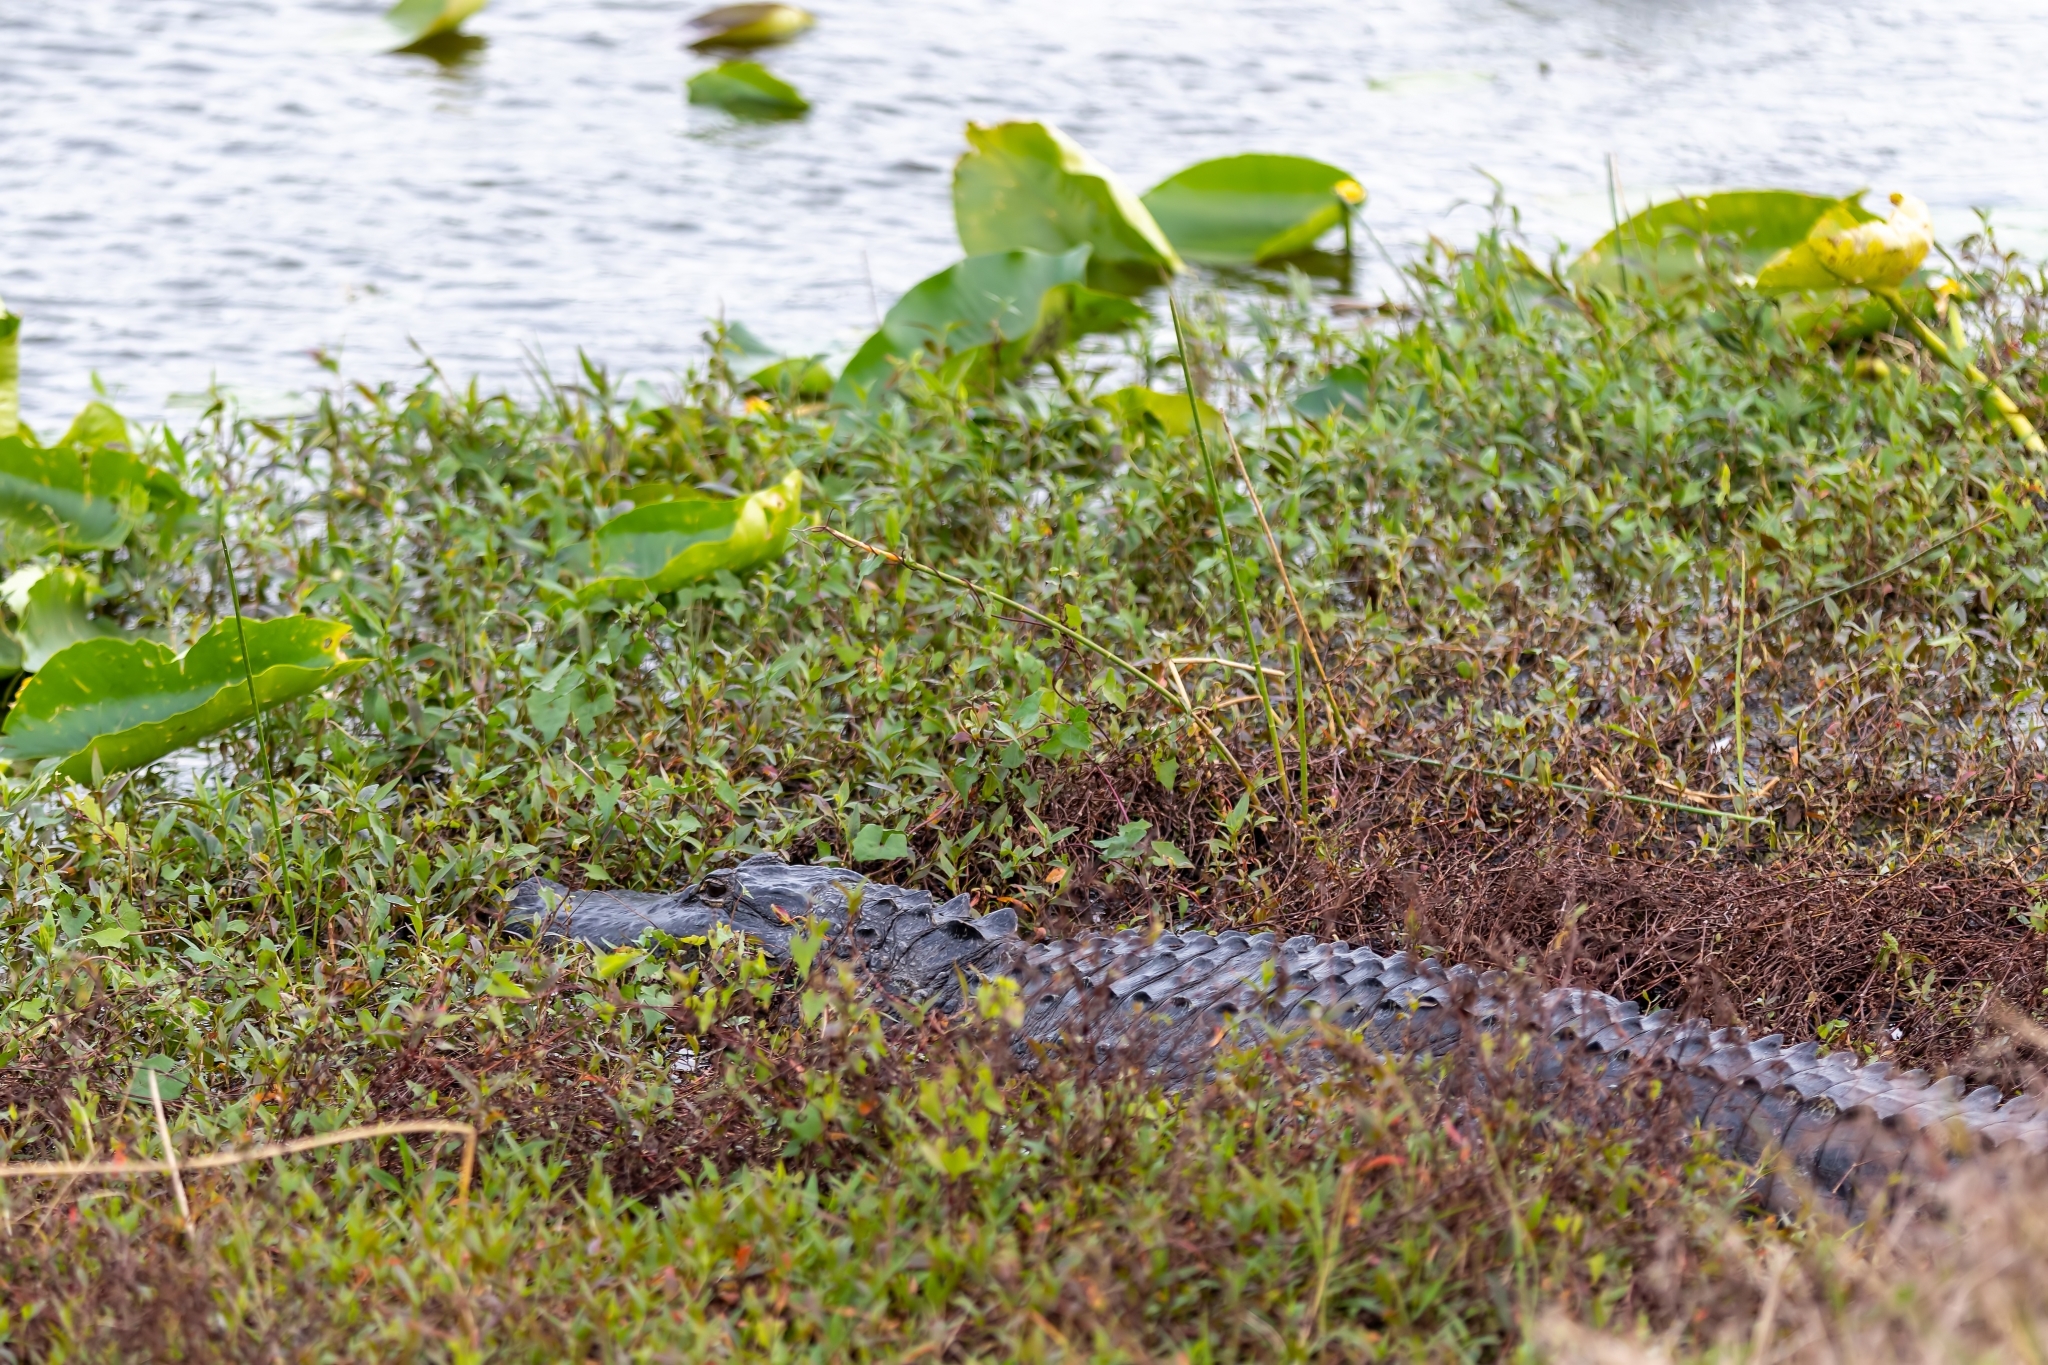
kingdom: Animalia
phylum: Chordata
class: Crocodylia
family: Alligatoridae
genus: Alligator
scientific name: Alligator mississippiensis
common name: American alligator
